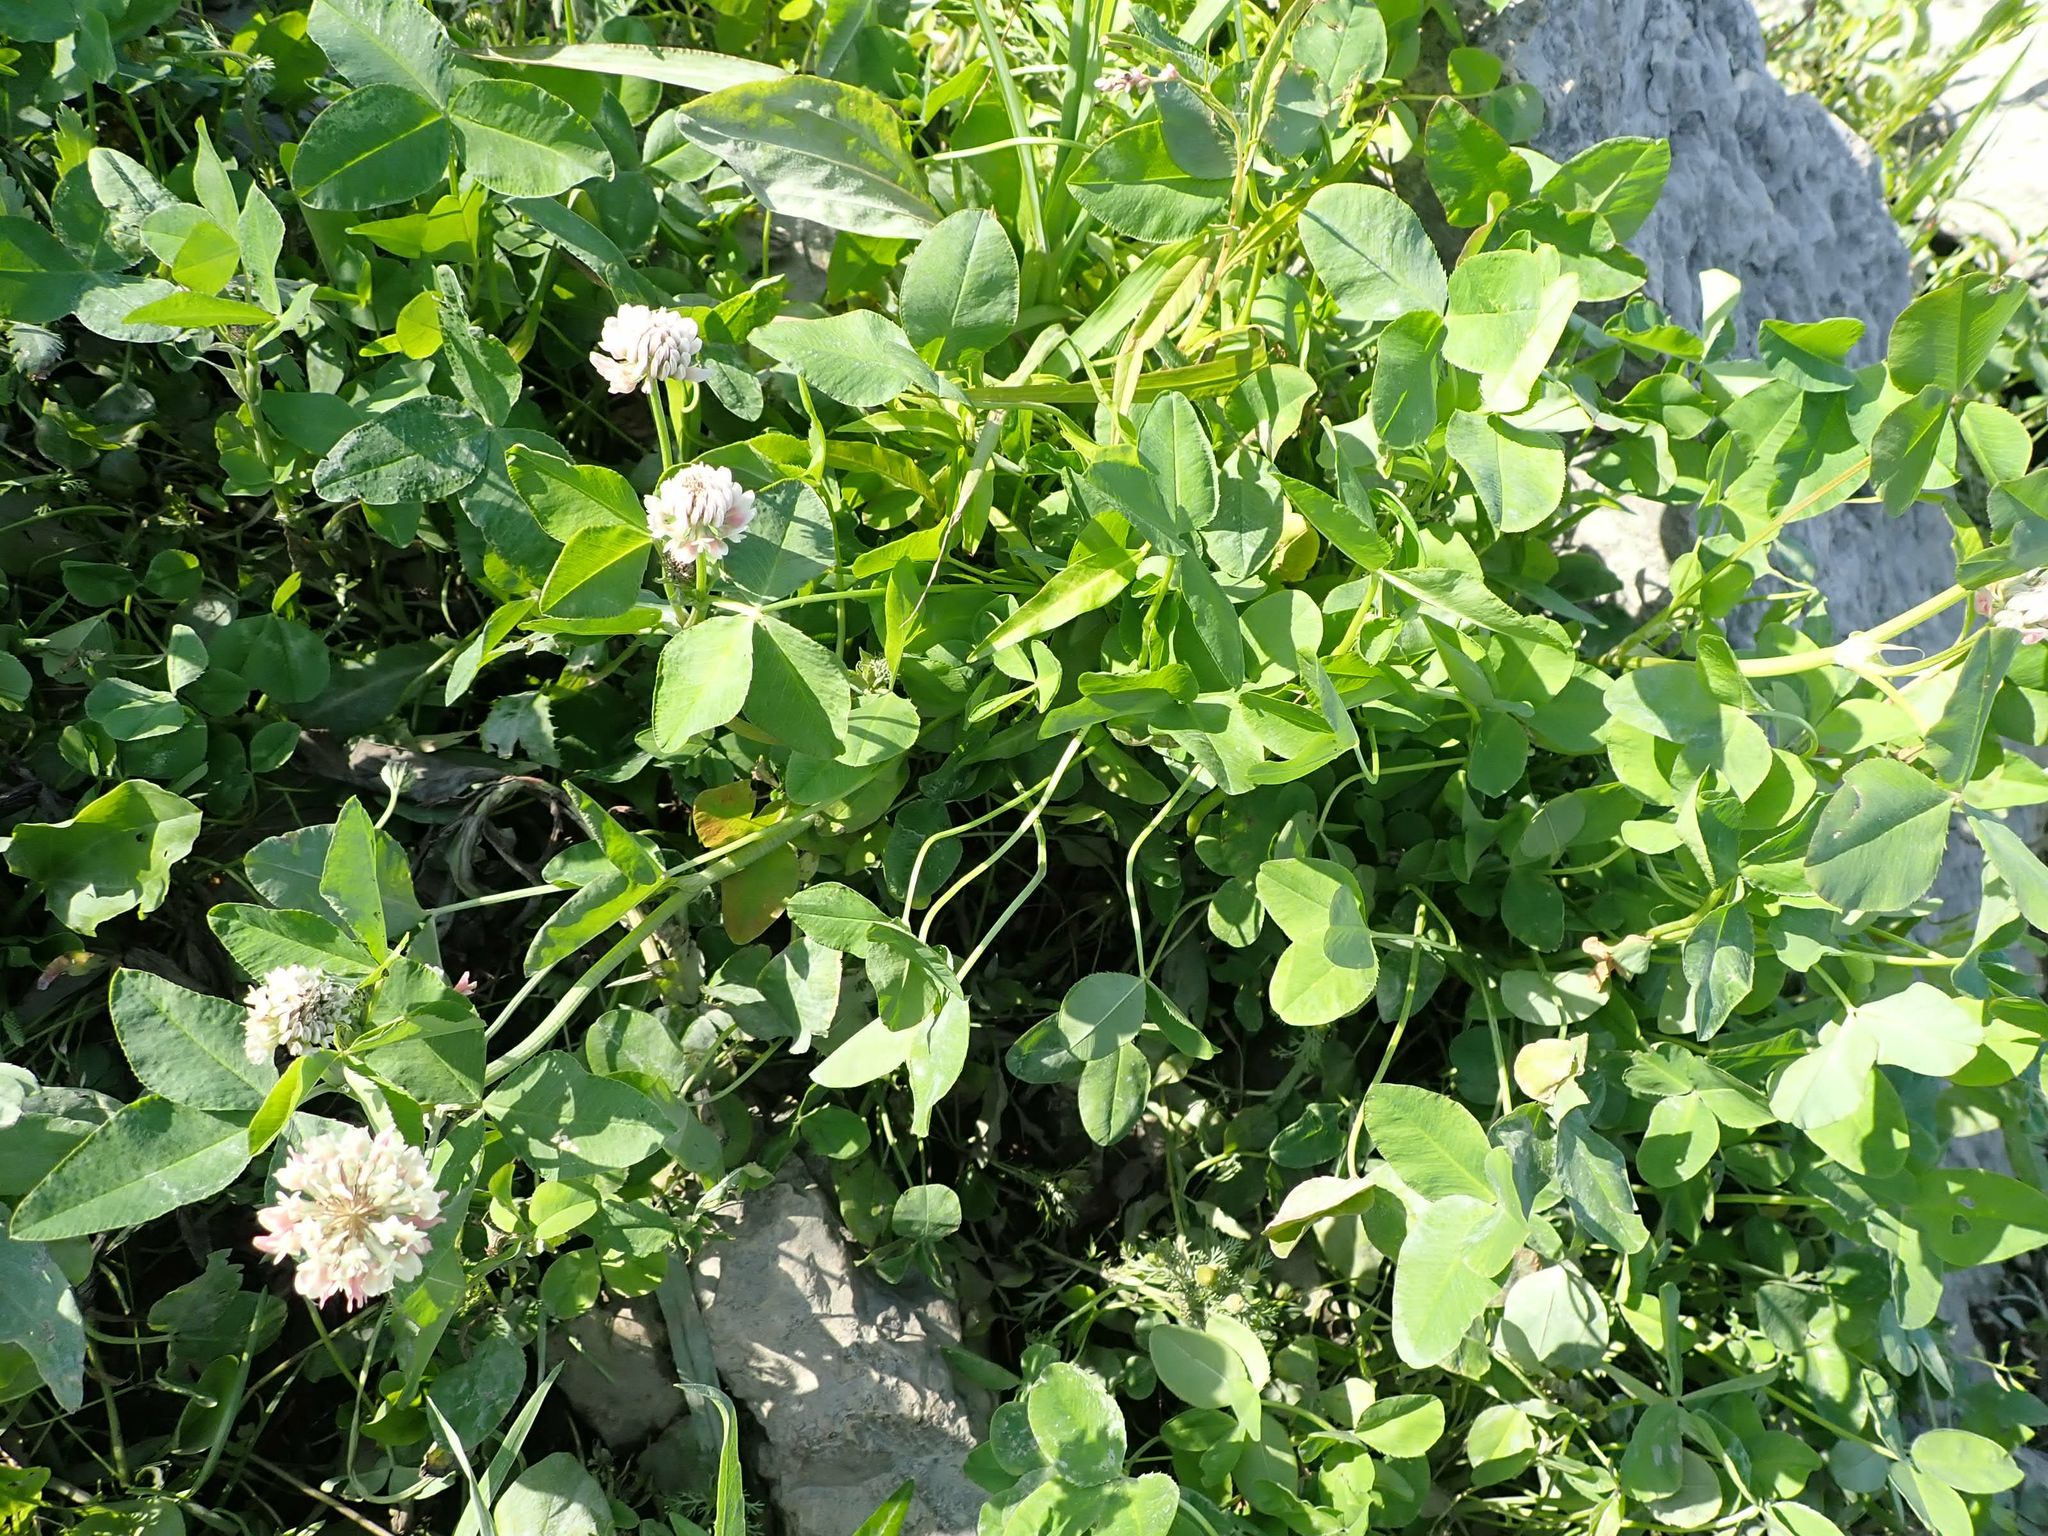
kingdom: Plantae
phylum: Tracheophyta
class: Magnoliopsida
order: Fabales
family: Fabaceae
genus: Trifolium
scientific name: Trifolium hybridum
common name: Alsike clover
